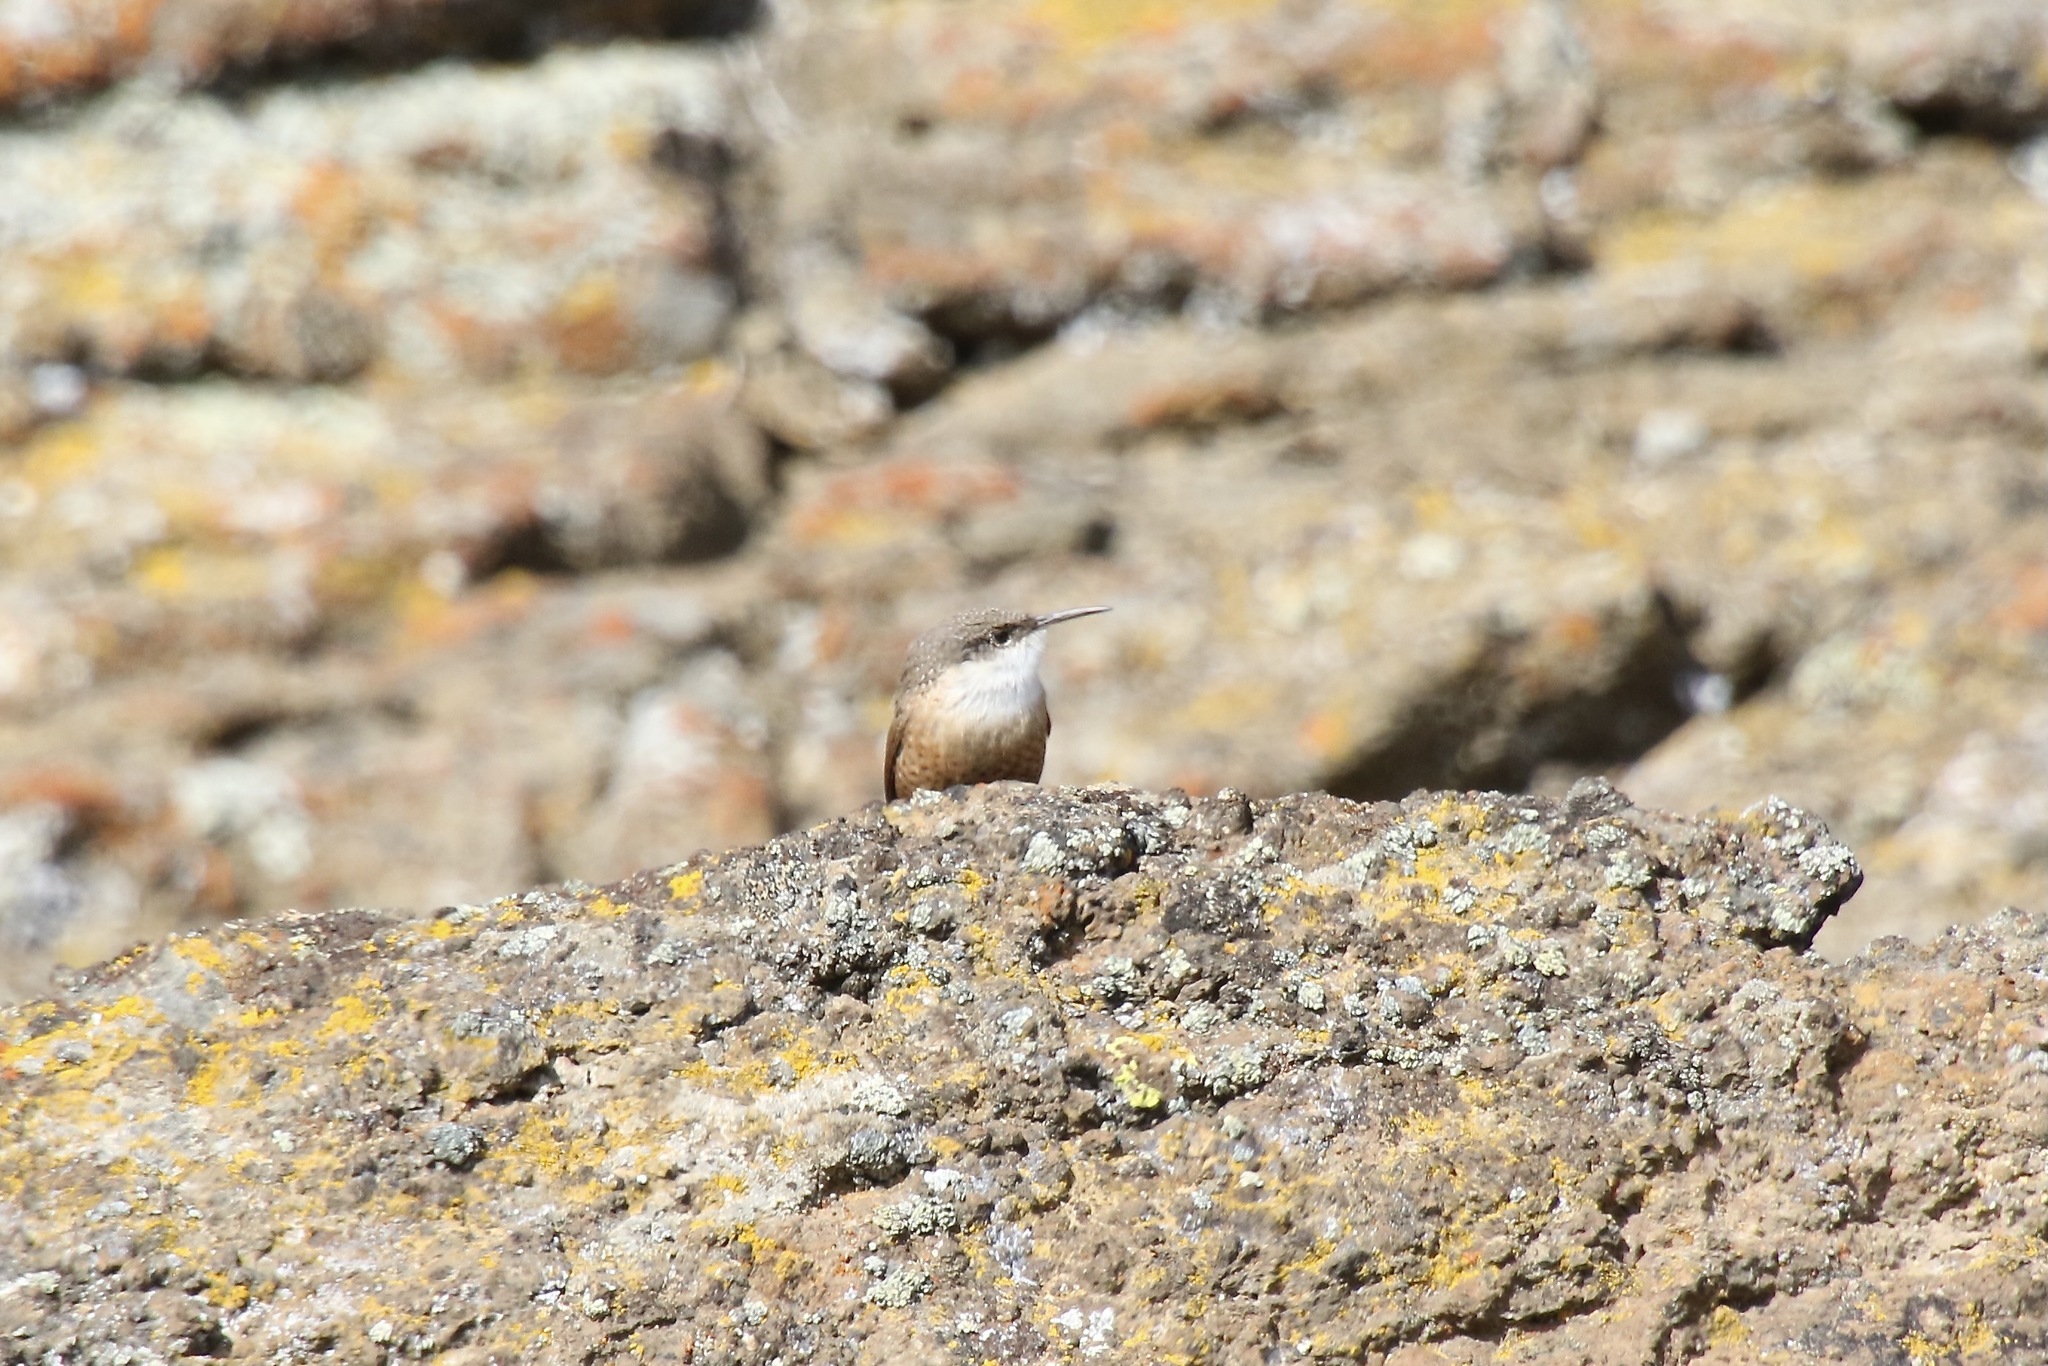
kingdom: Animalia
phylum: Chordata
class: Aves
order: Passeriformes
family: Troglodytidae
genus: Catherpes
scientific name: Catherpes mexicanus
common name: Canyon wren
